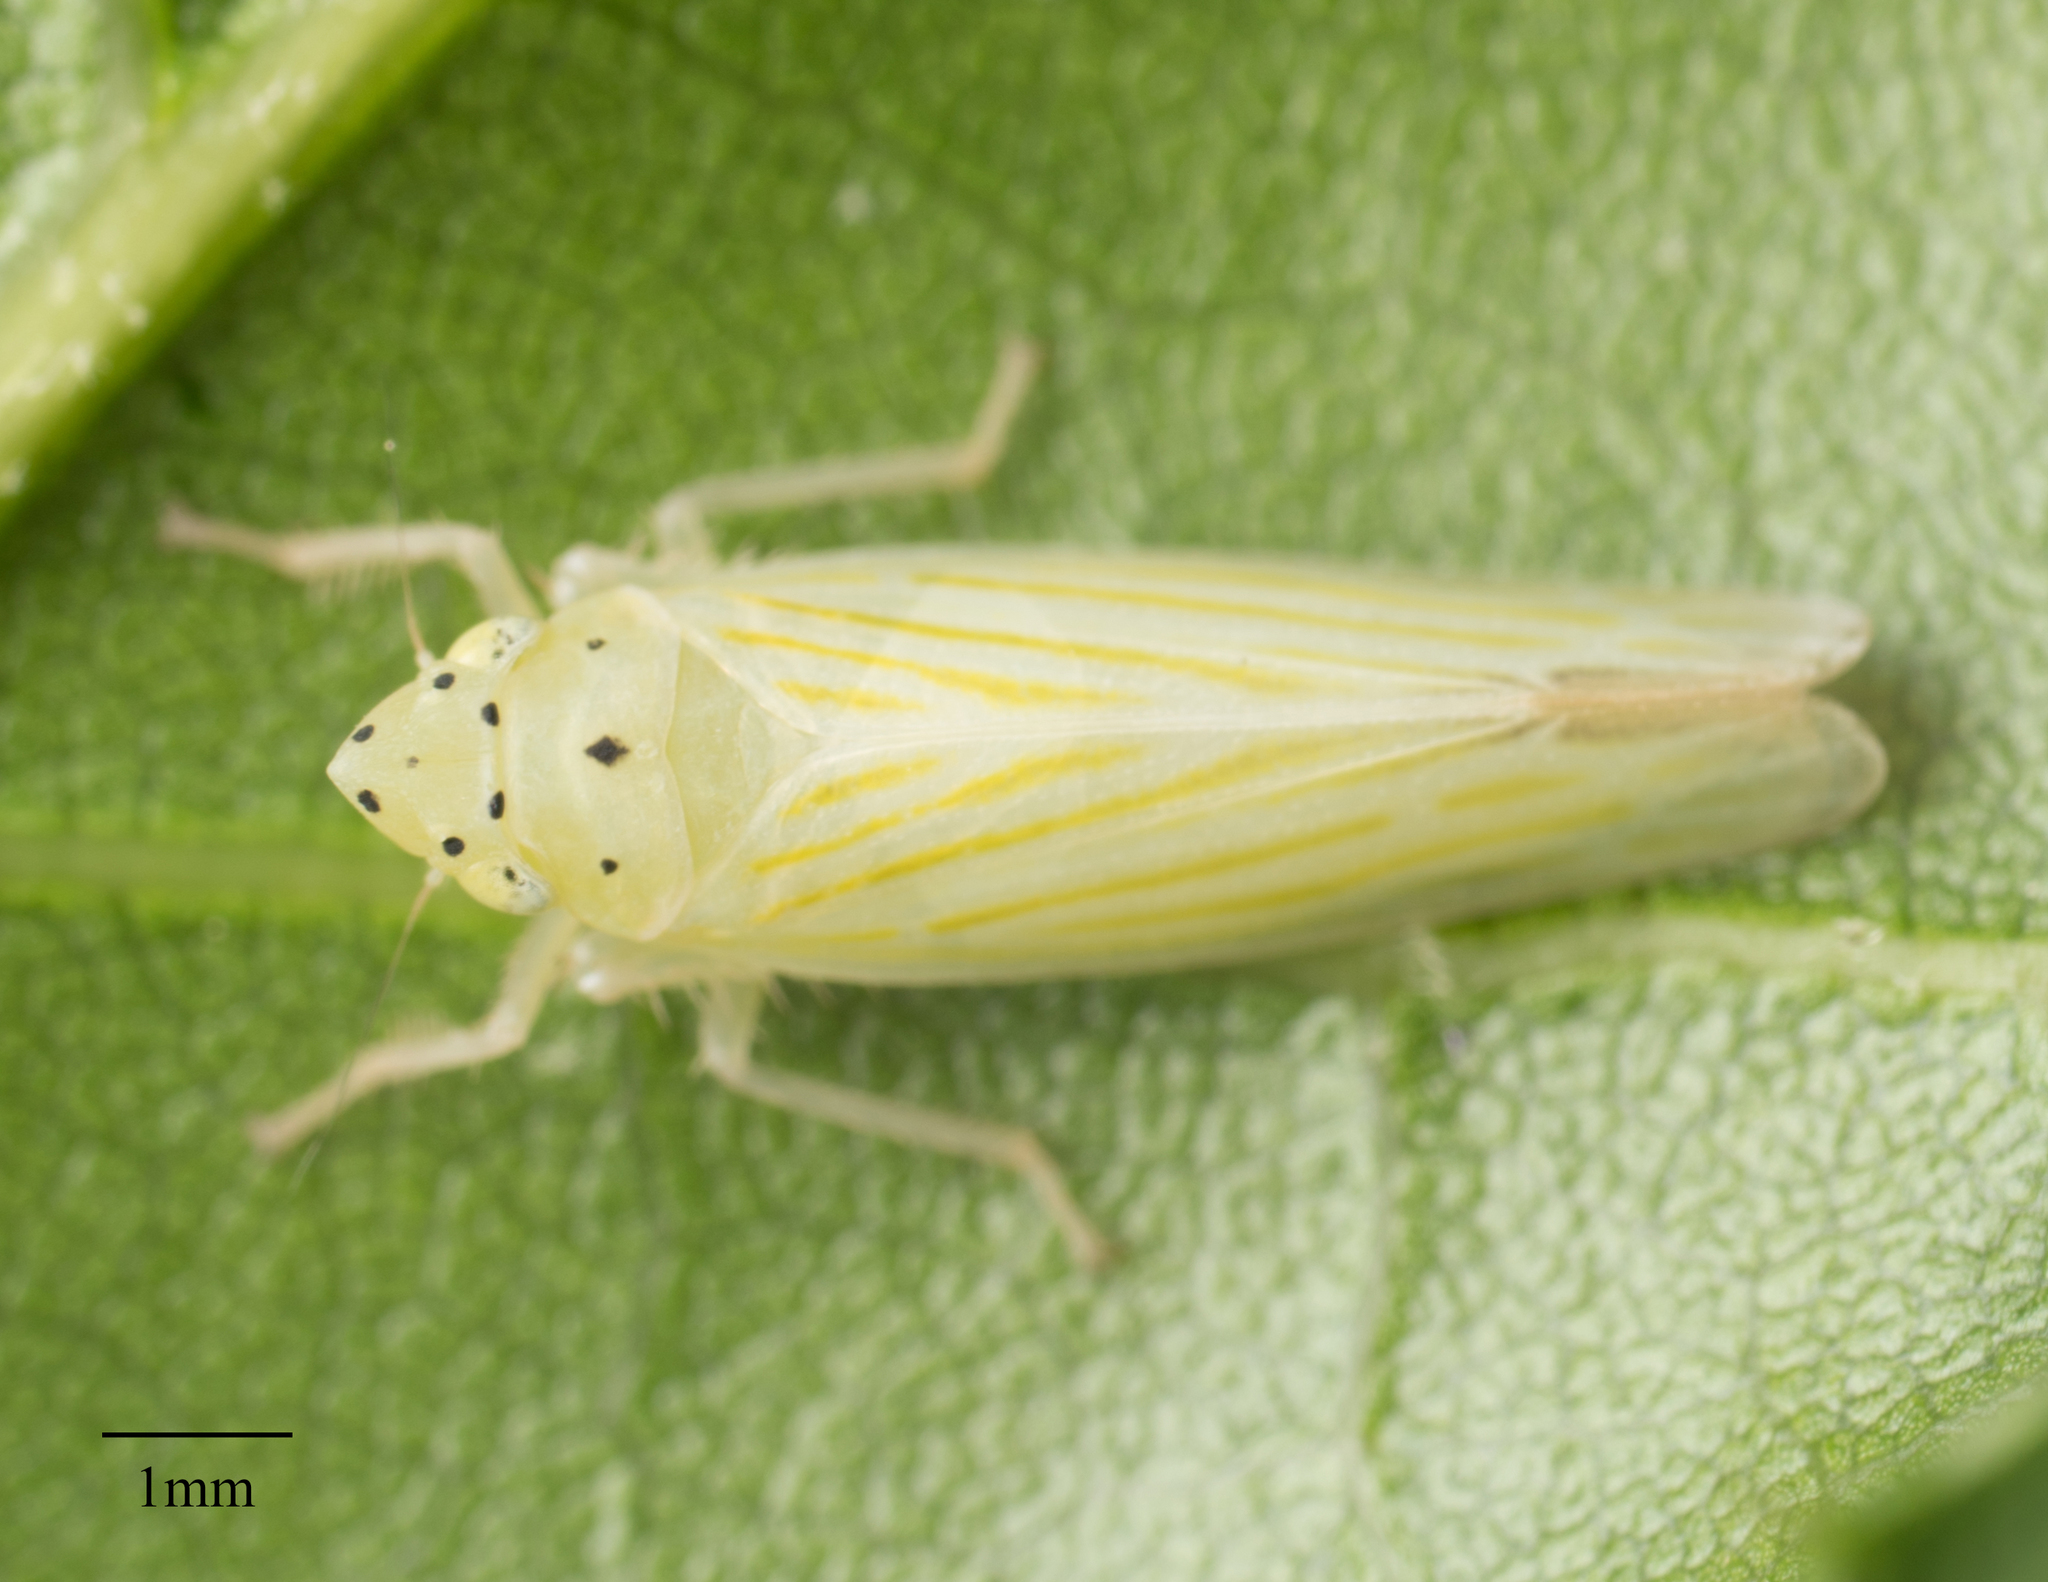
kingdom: Animalia
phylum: Arthropoda
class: Insecta
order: Hemiptera
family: Cicadellidae
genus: Pagaronia
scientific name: Pagaronia tredecimpunctata
